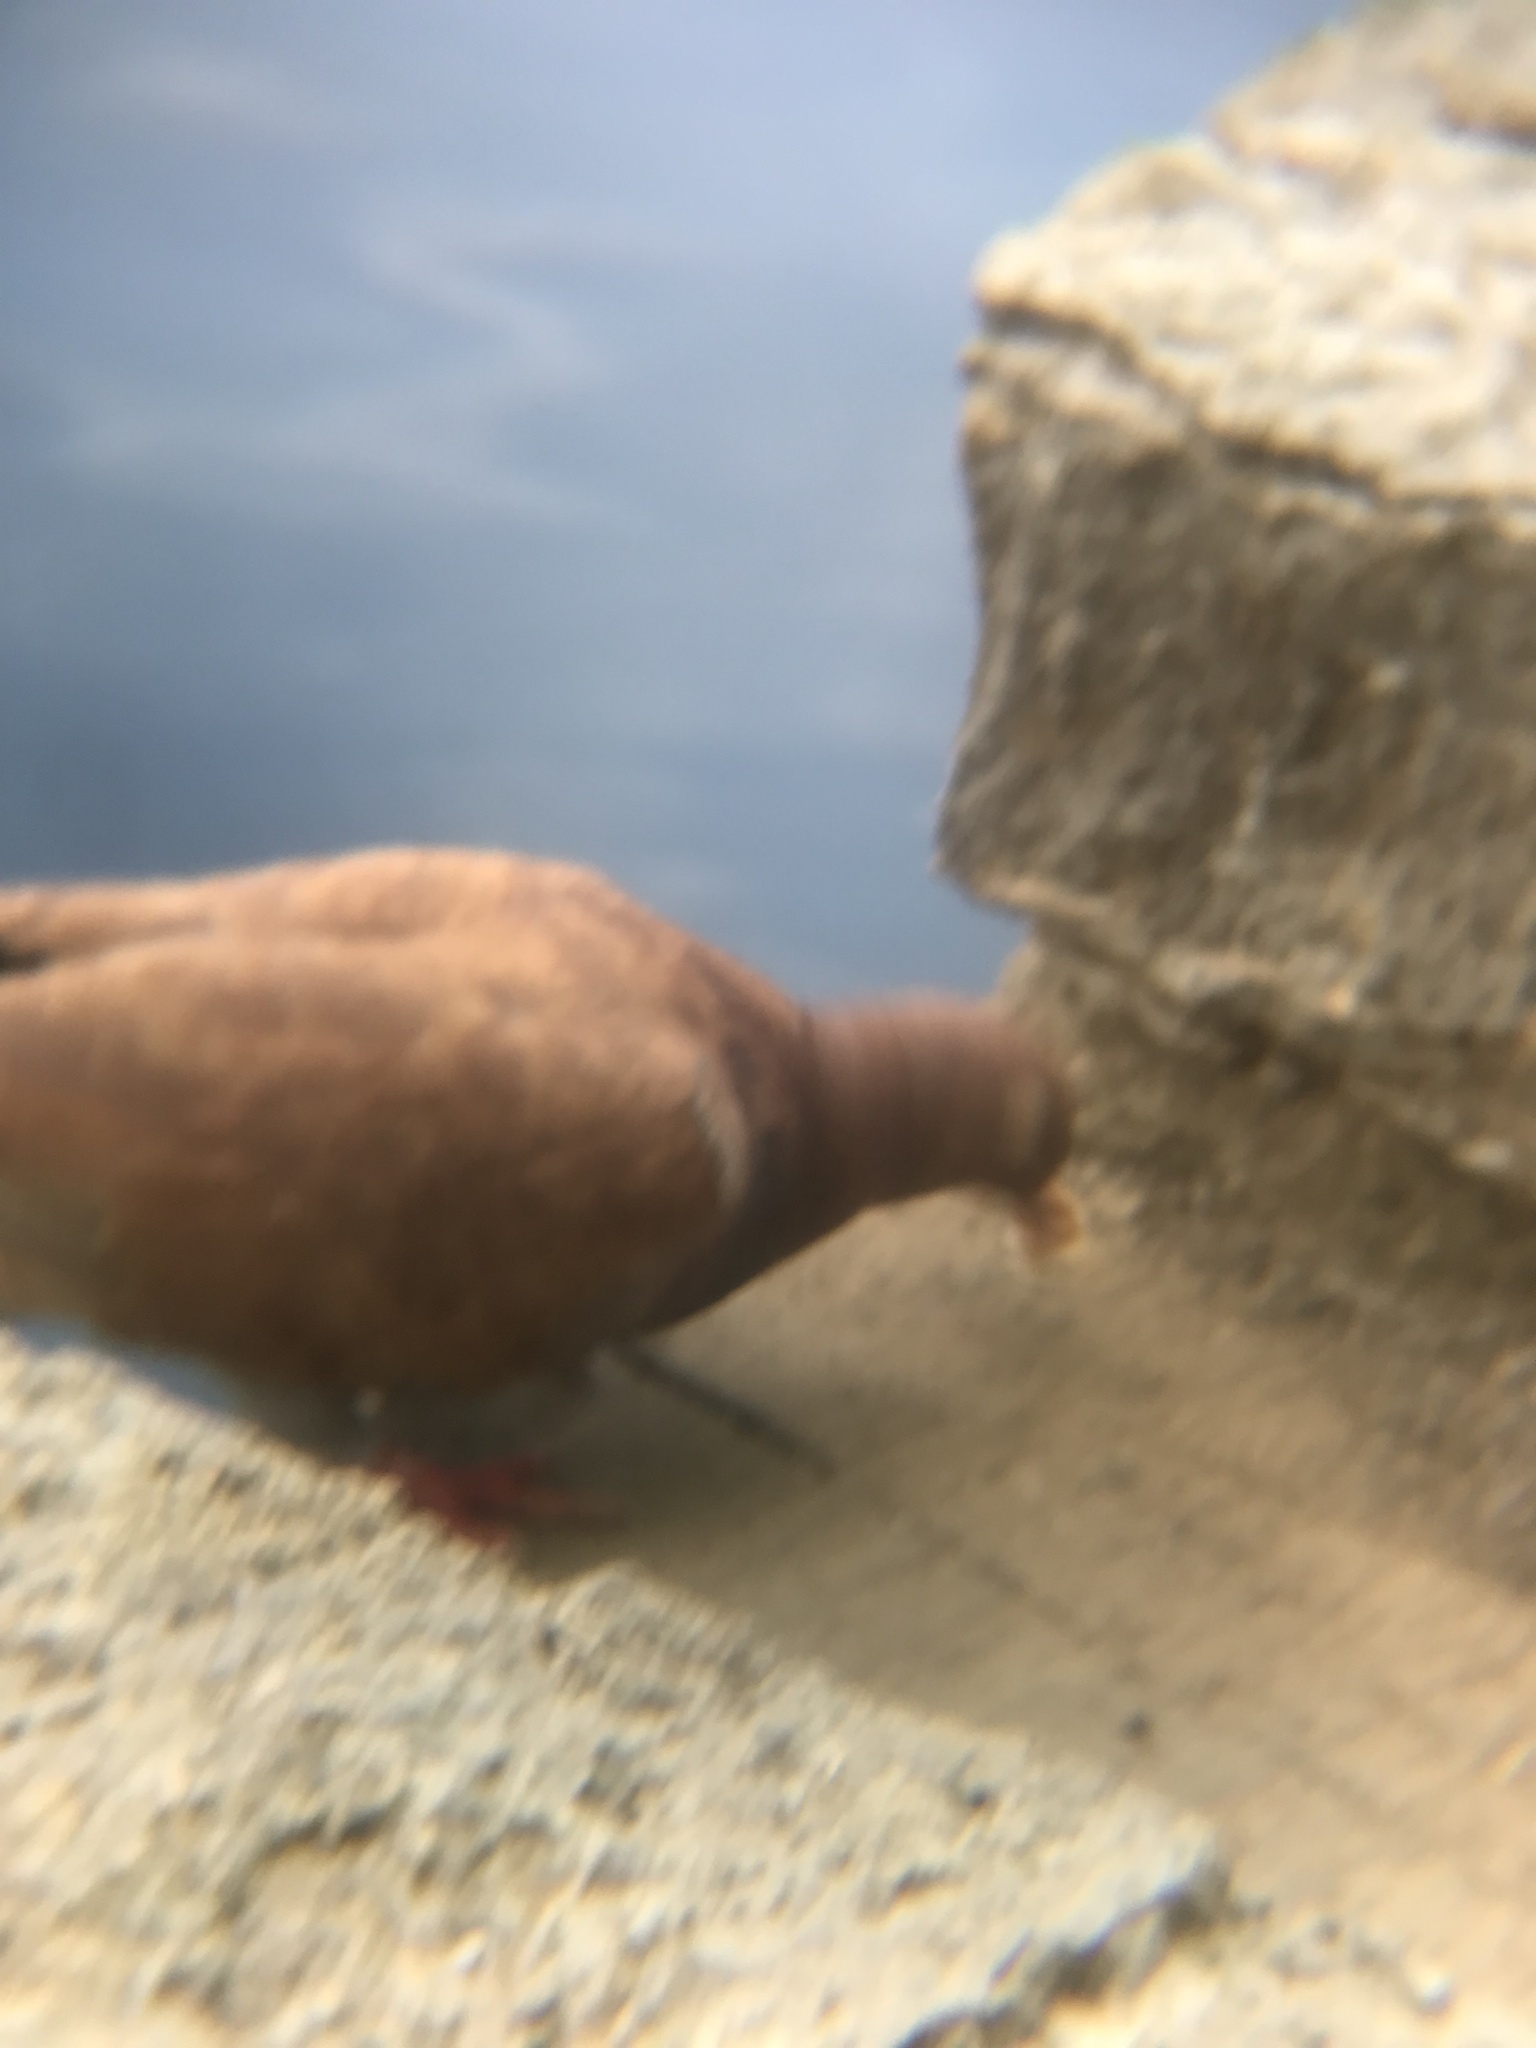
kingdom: Animalia
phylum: Chordata
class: Aves
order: Columbiformes
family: Columbidae
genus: Columba
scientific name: Columba livia
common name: Rock pigeon
